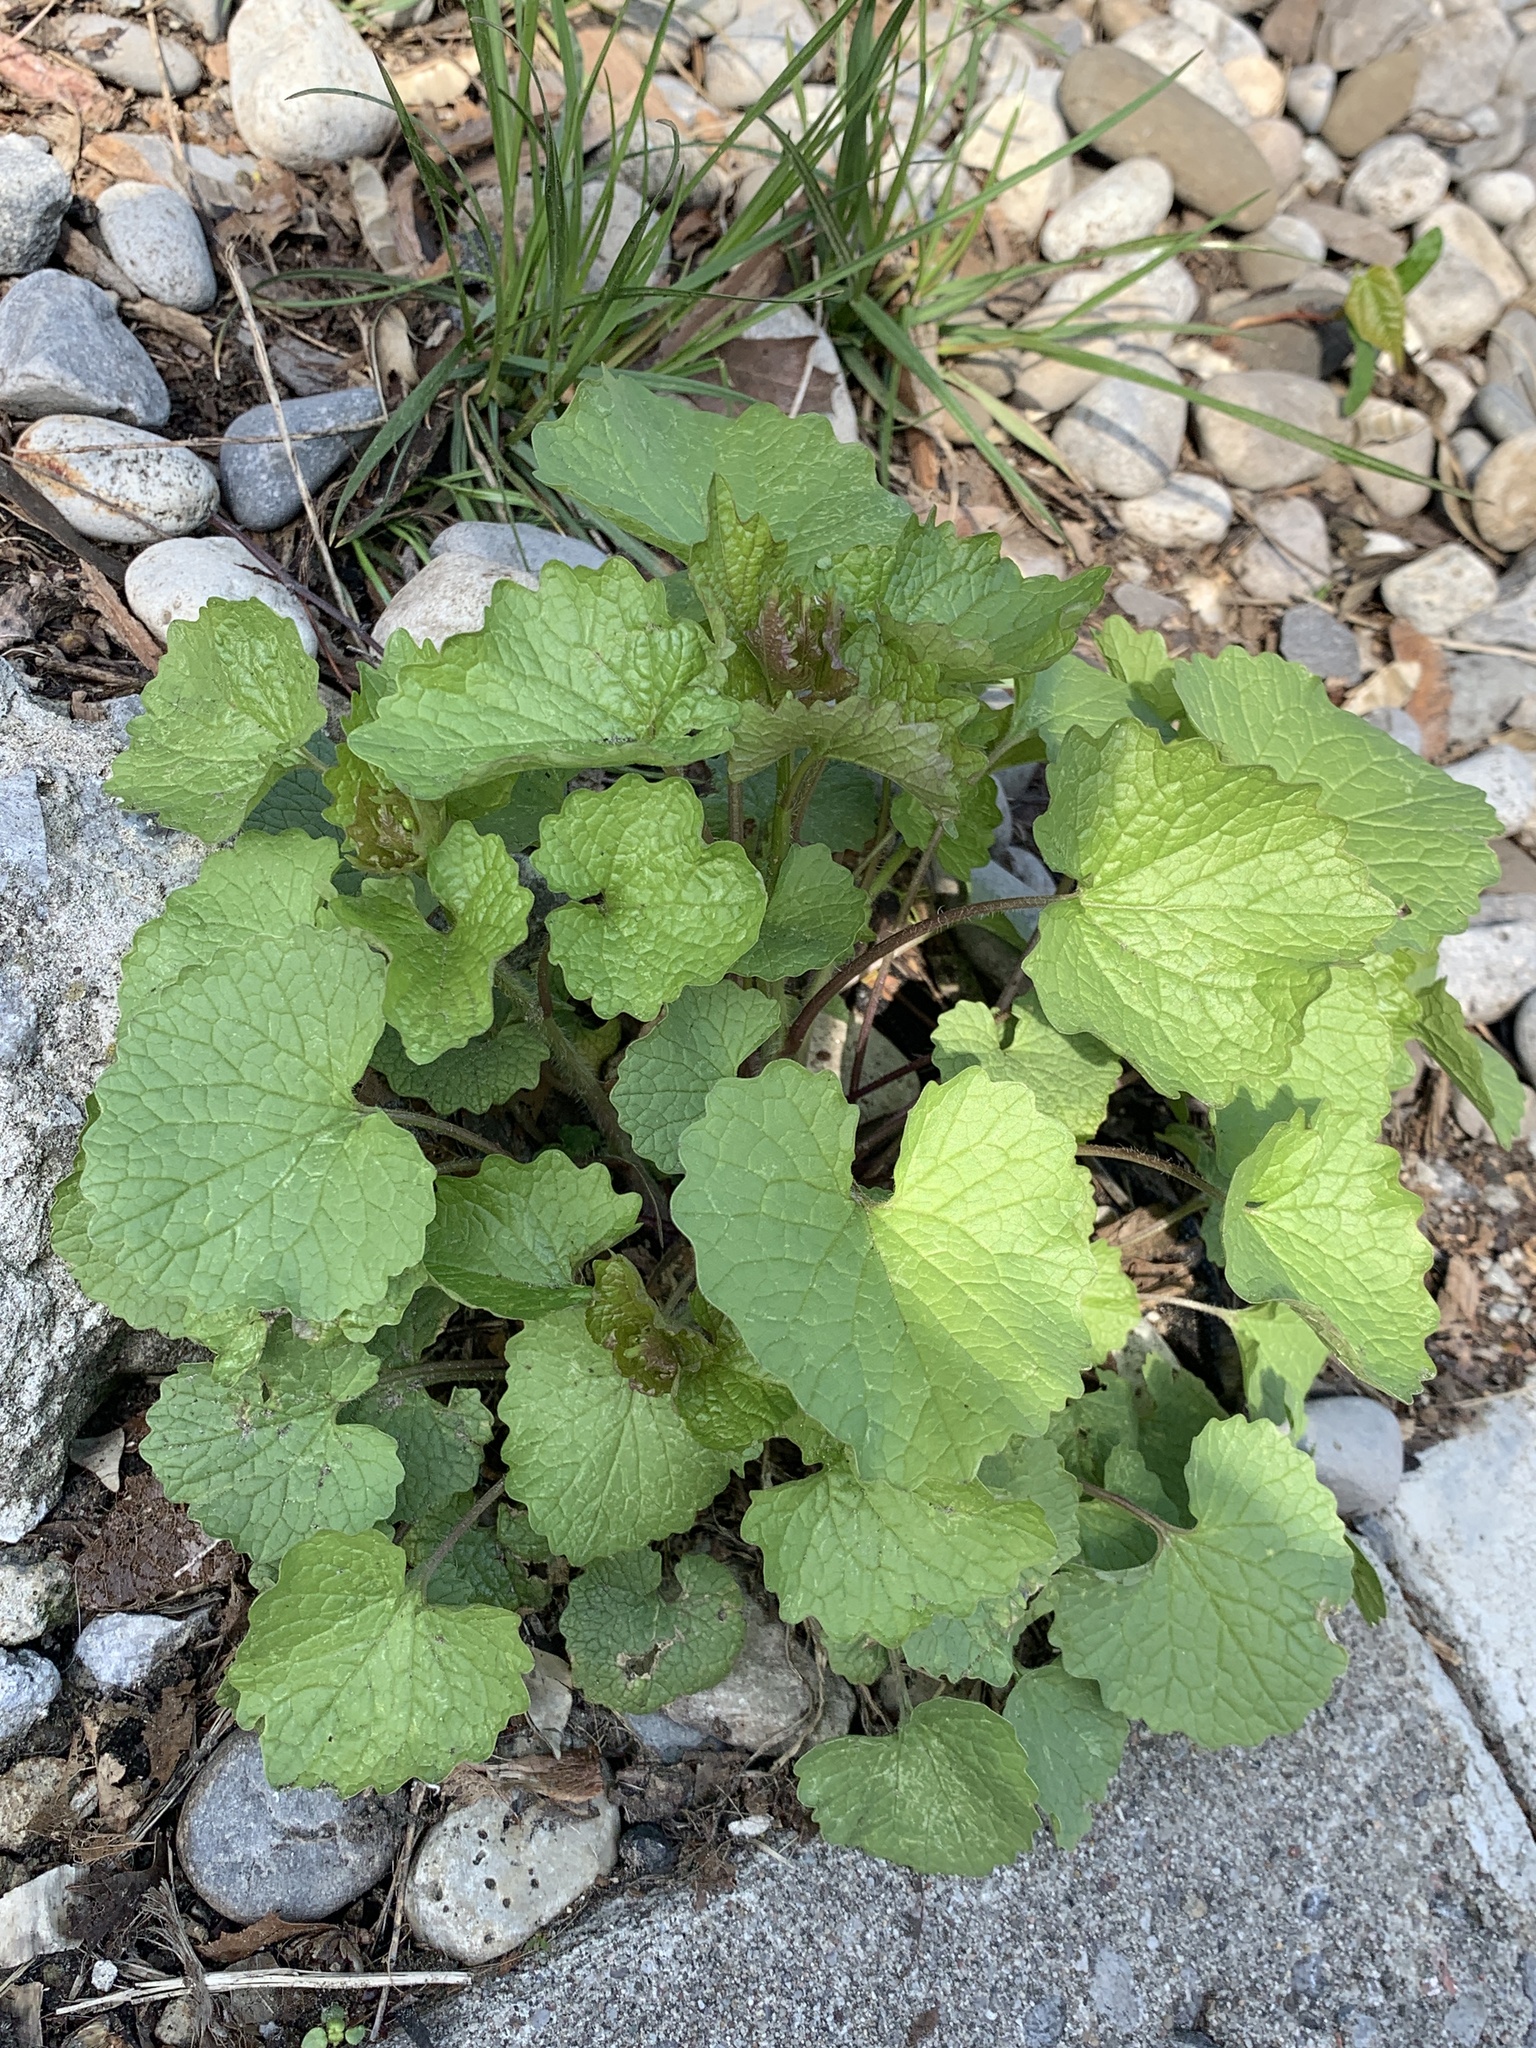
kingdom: Plantae
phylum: Tracheophyta
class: Magnoliopsida
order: Brassicales
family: Brassicaceae
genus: Alliaria
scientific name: Alliaria petiolata
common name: Garlic mustard
